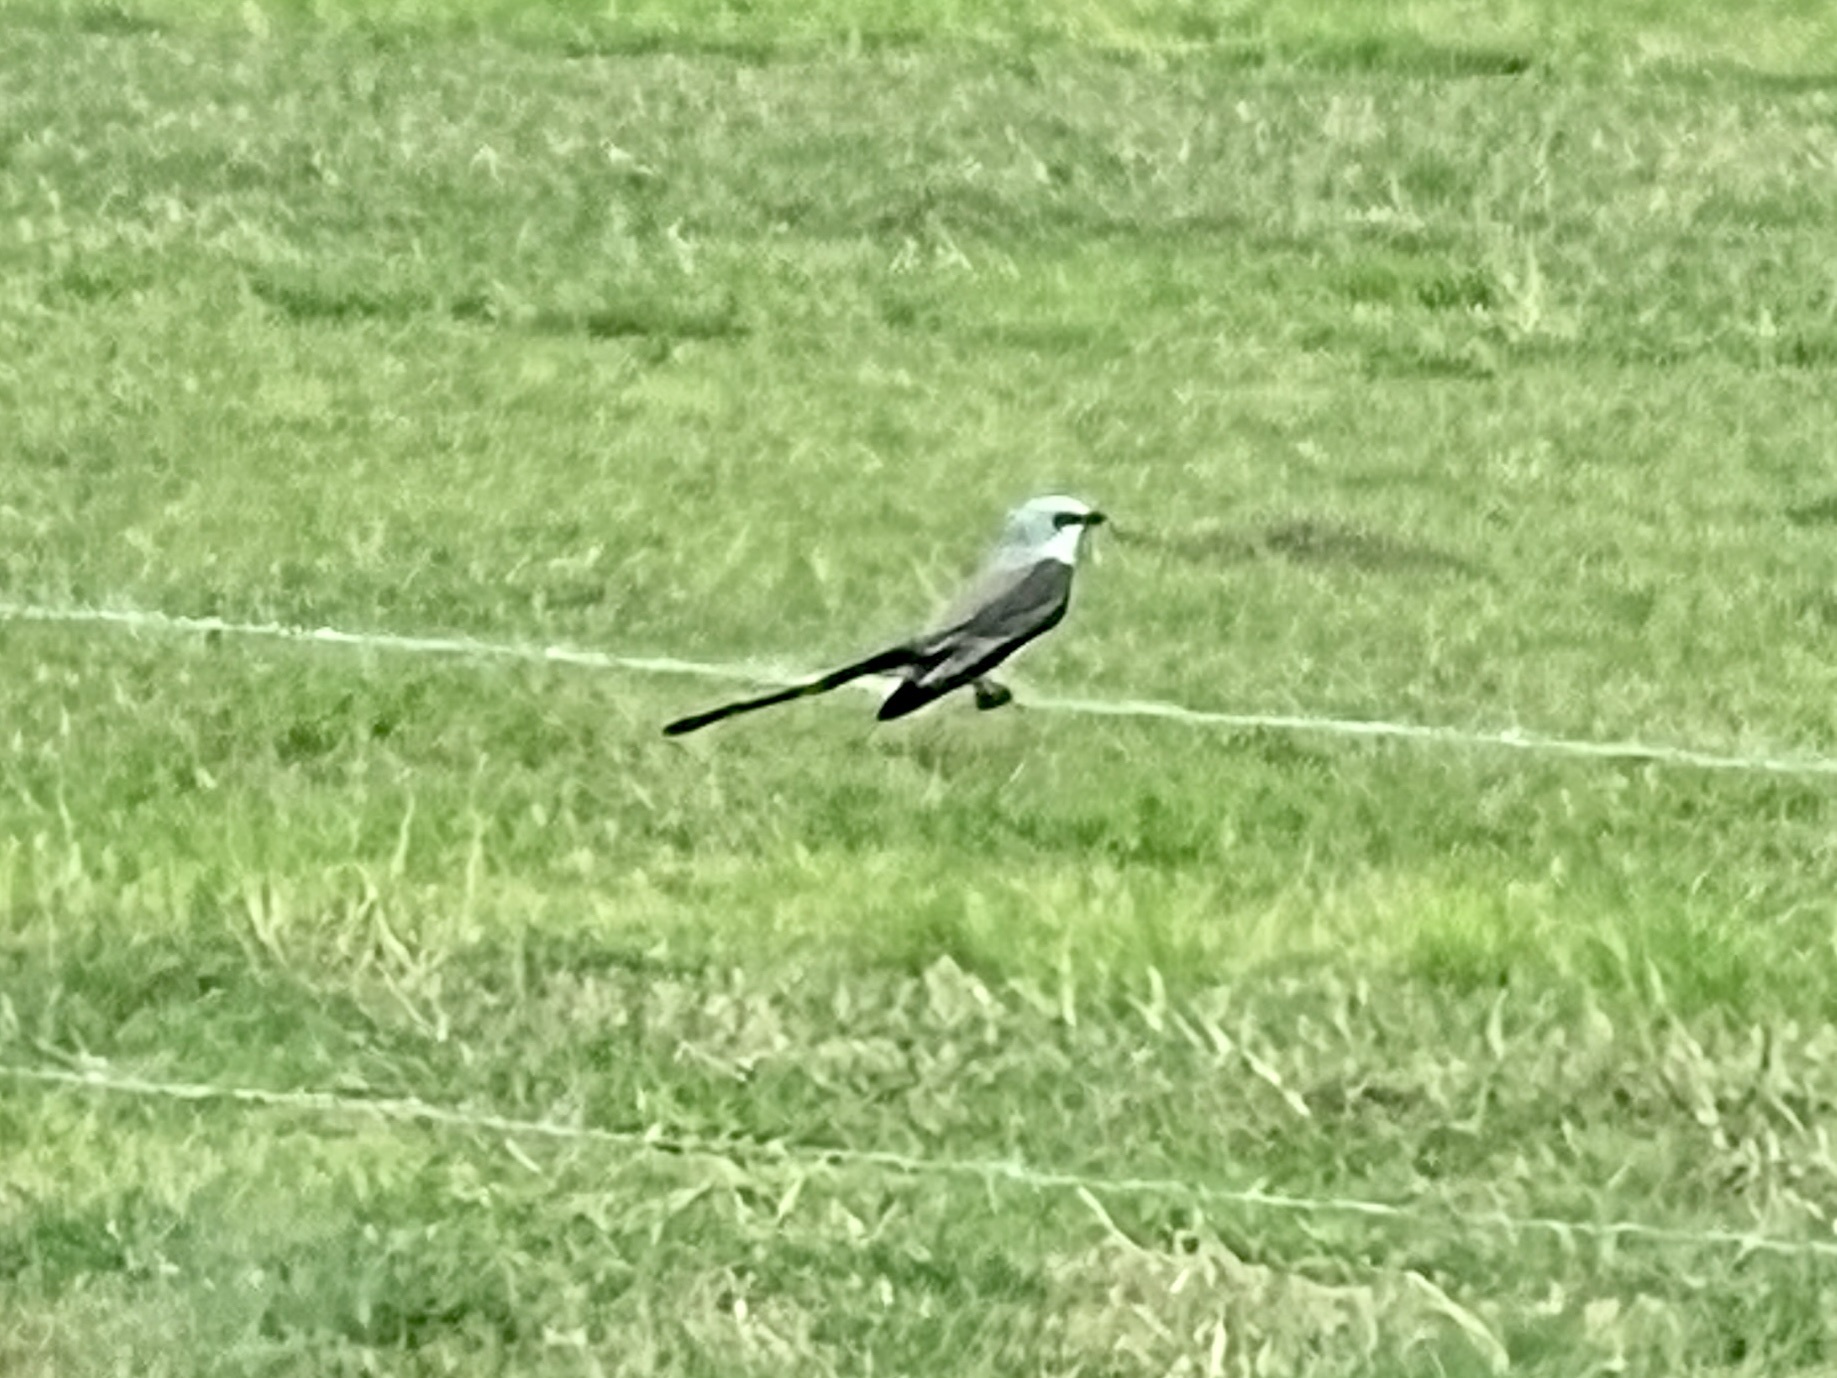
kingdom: Animalia
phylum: Chordata
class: Aves
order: Passeriformes
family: Tyrannidae
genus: Tyrannus
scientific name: Tyrannus forficatus
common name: Scissor-tailed flycatcher
